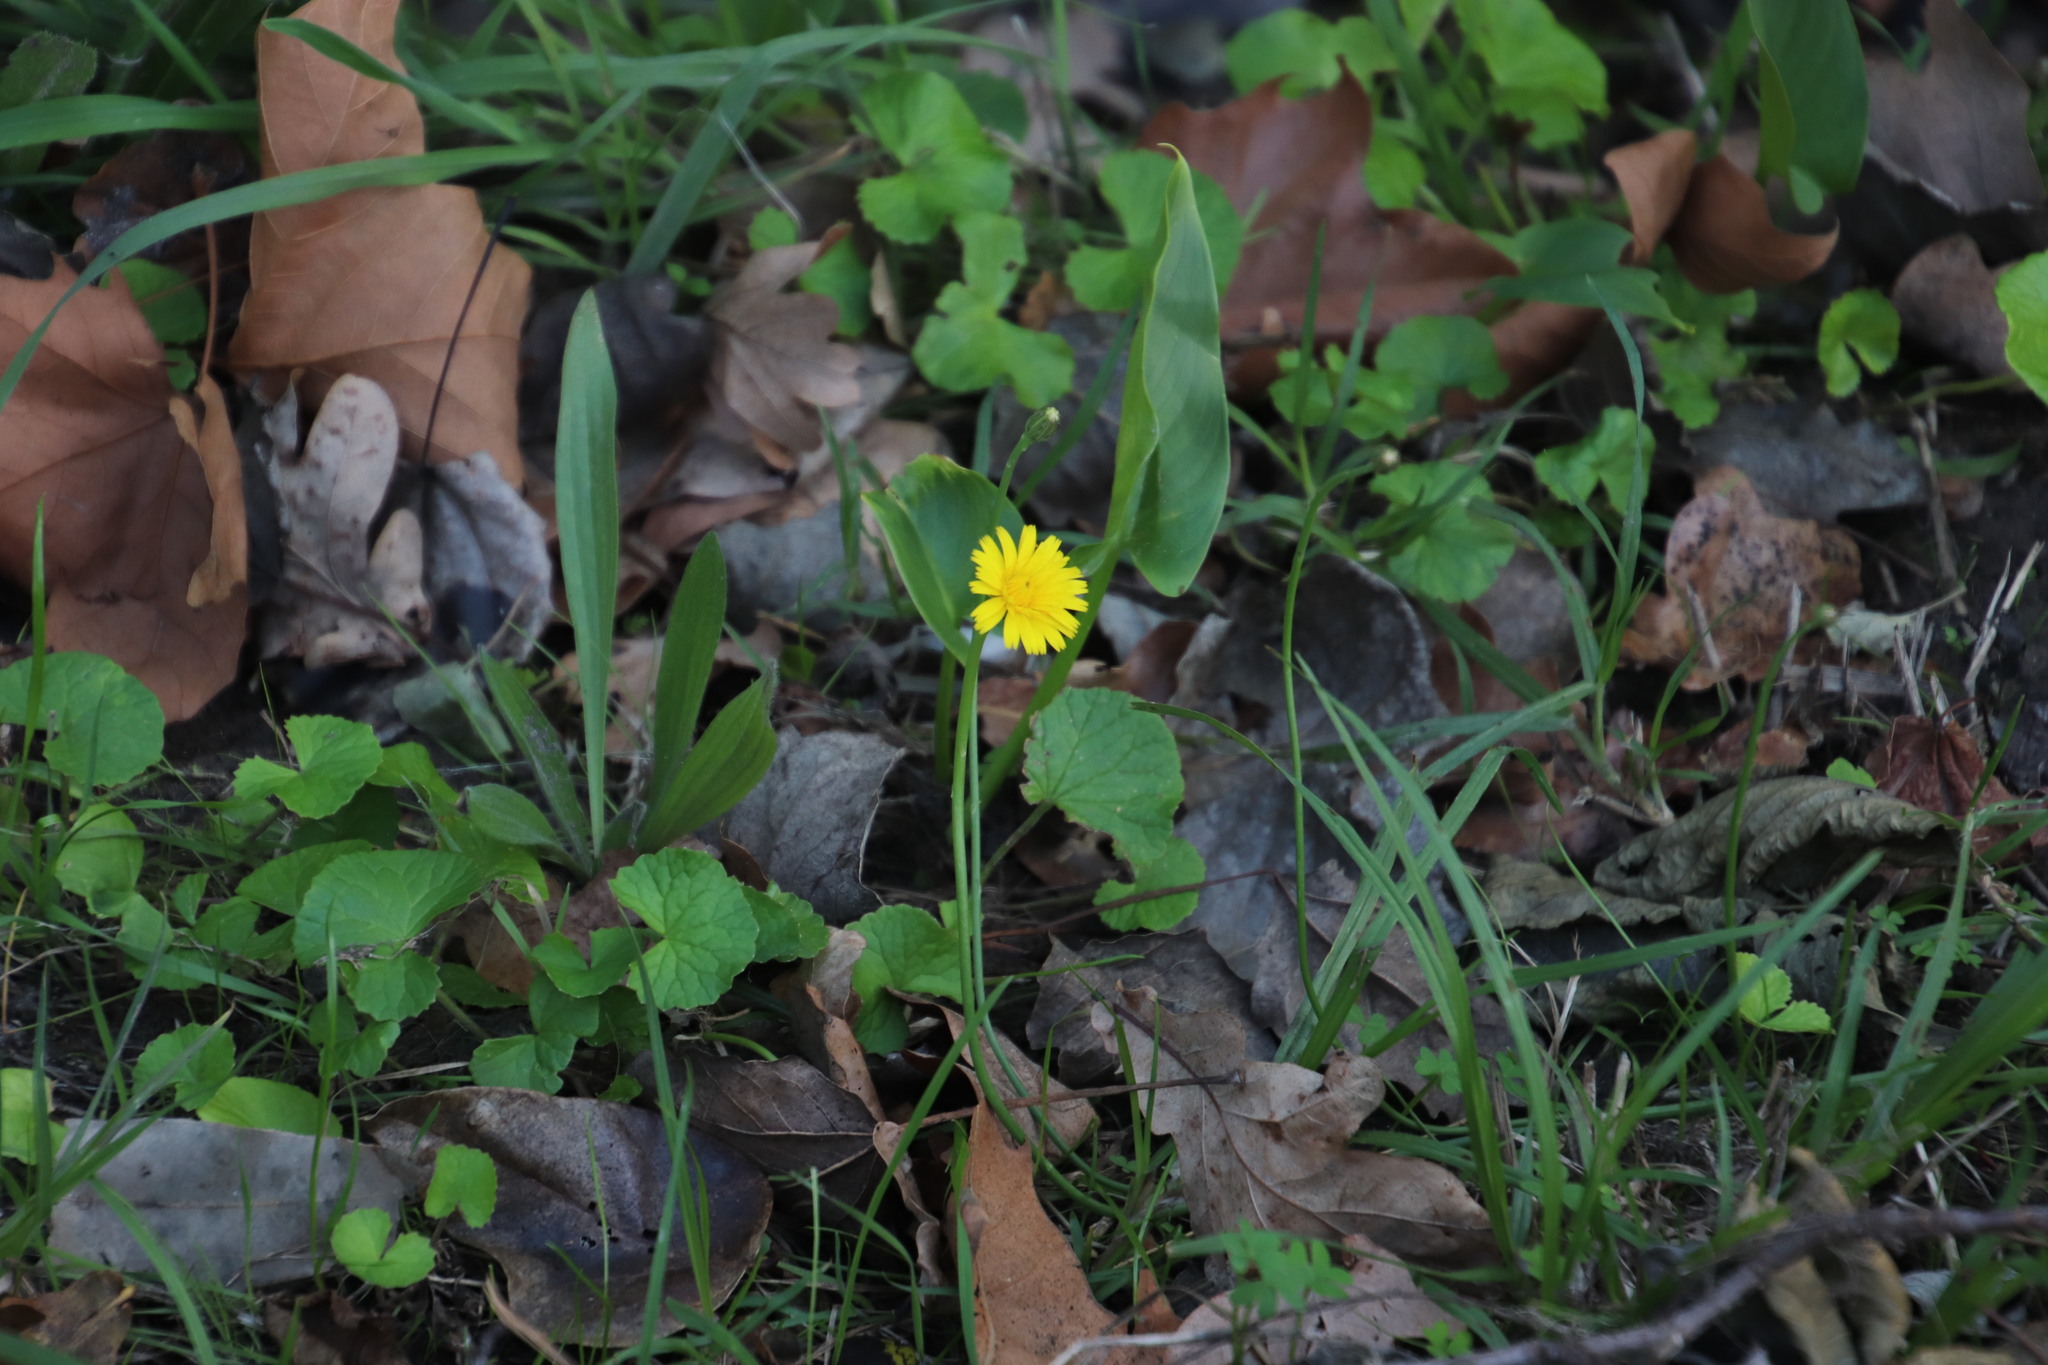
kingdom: Plantae
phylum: Tracheophyta
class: Magnoliopsida
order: Asterales
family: Asteraceae
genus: Hypochaeris
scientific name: Hypochaeris radicata
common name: Flatweed
